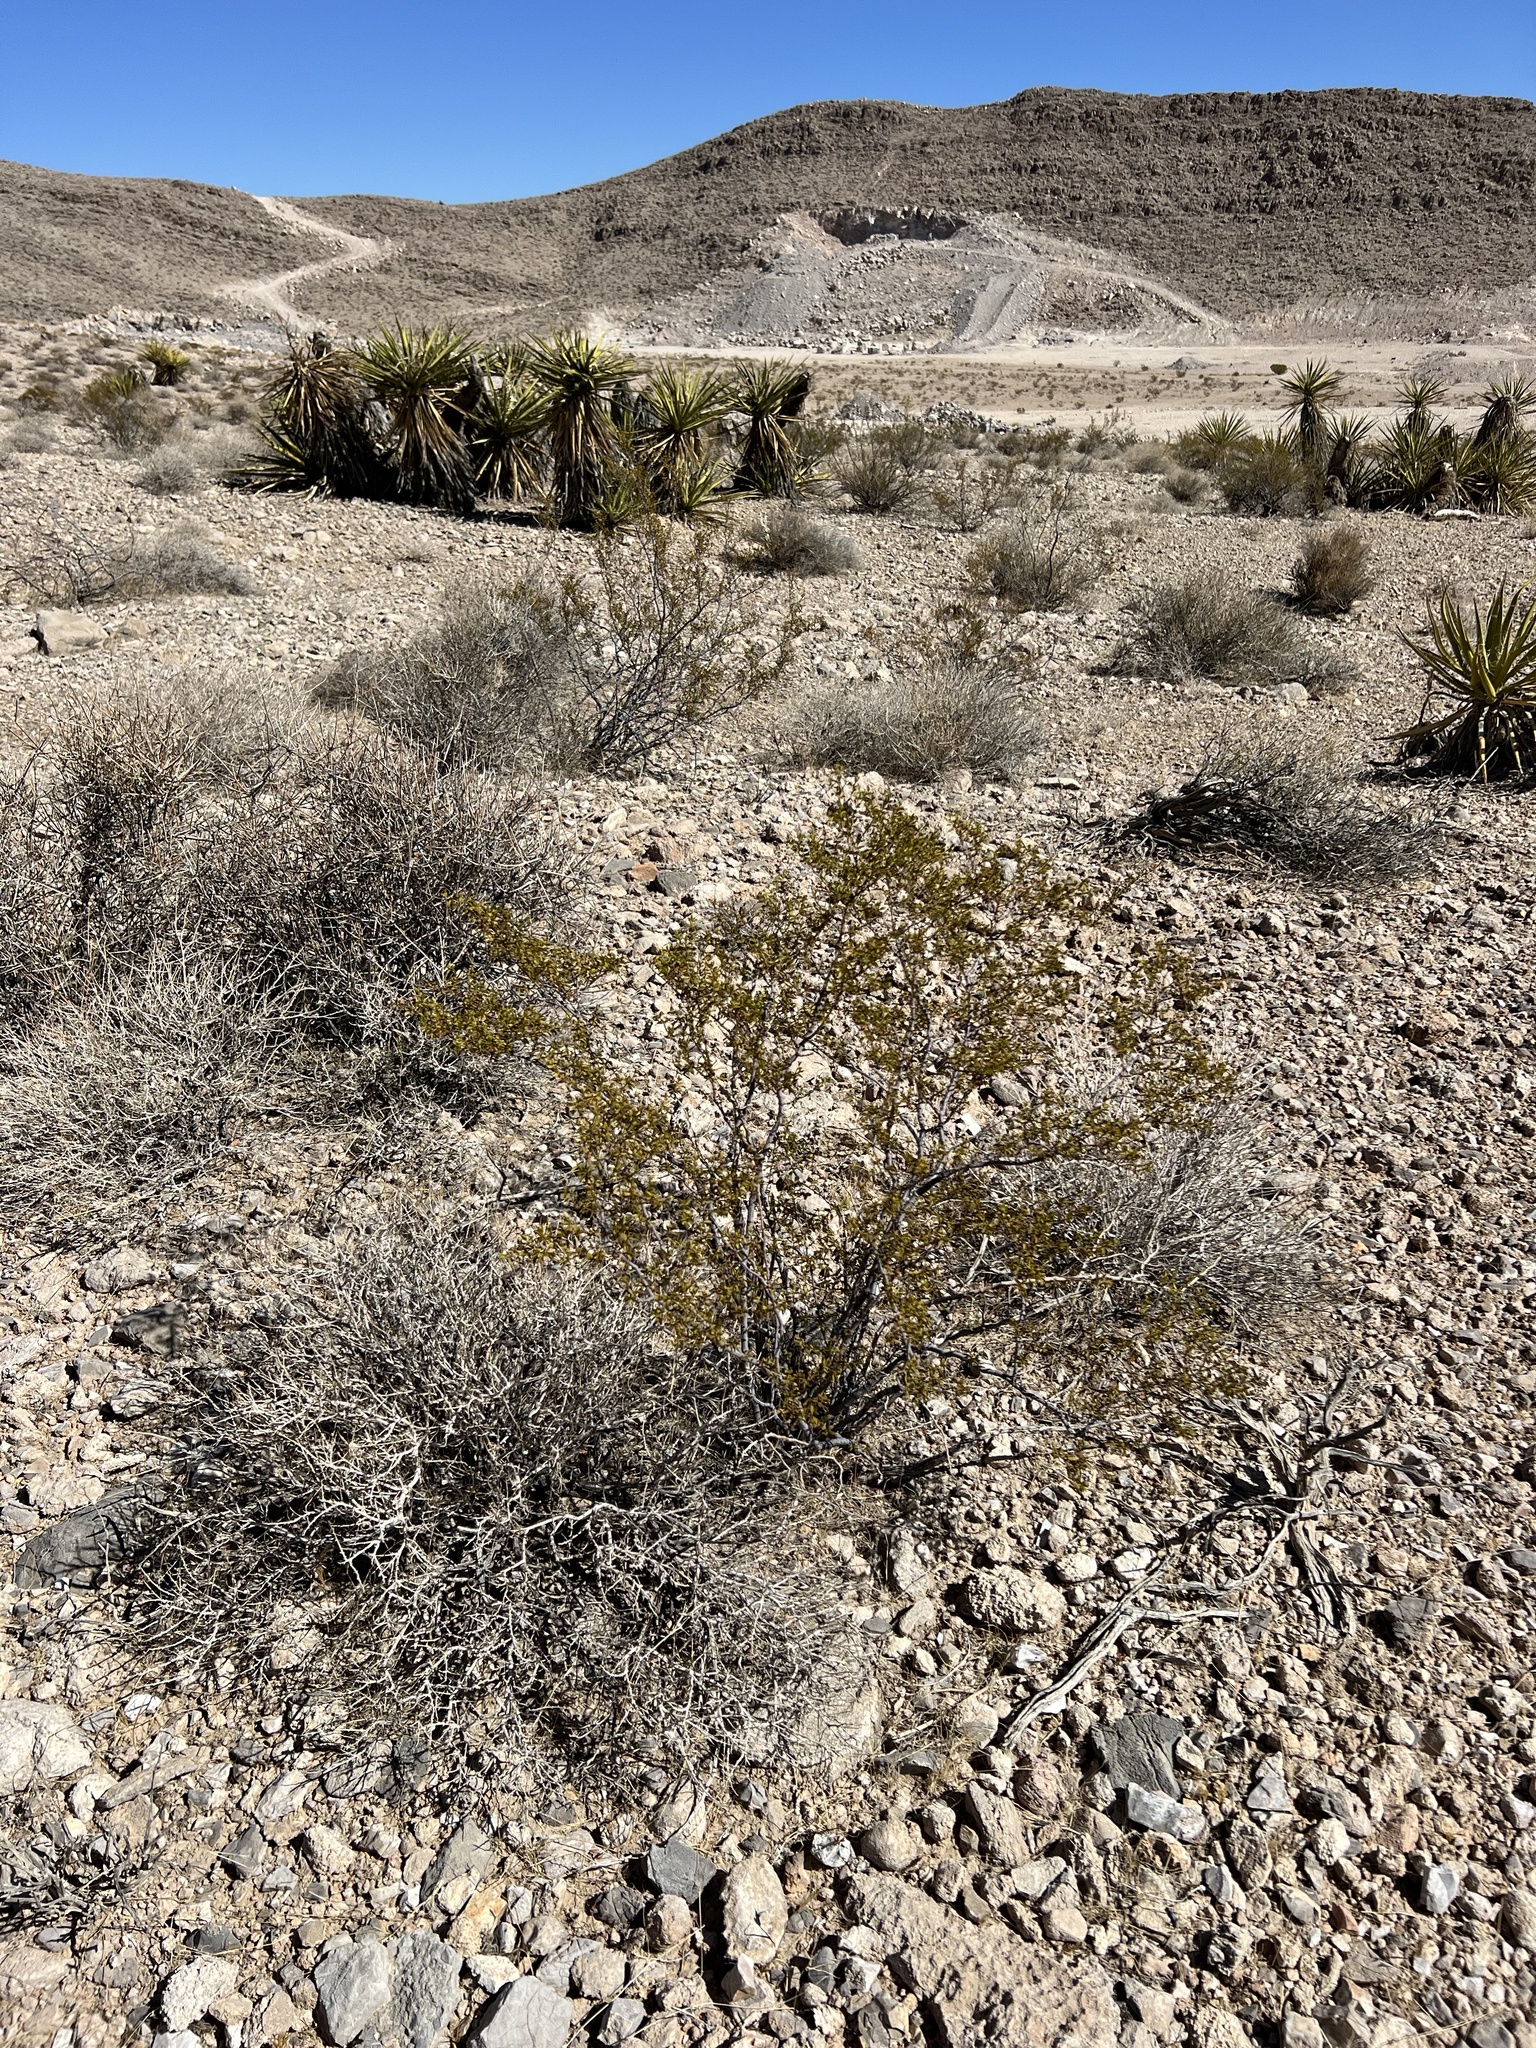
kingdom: Plantae
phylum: Tracheophyta
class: Magnoliopsida
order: Zygophyllales
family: Zygophyllaceae
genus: Larrea
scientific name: Larrea tridentata
